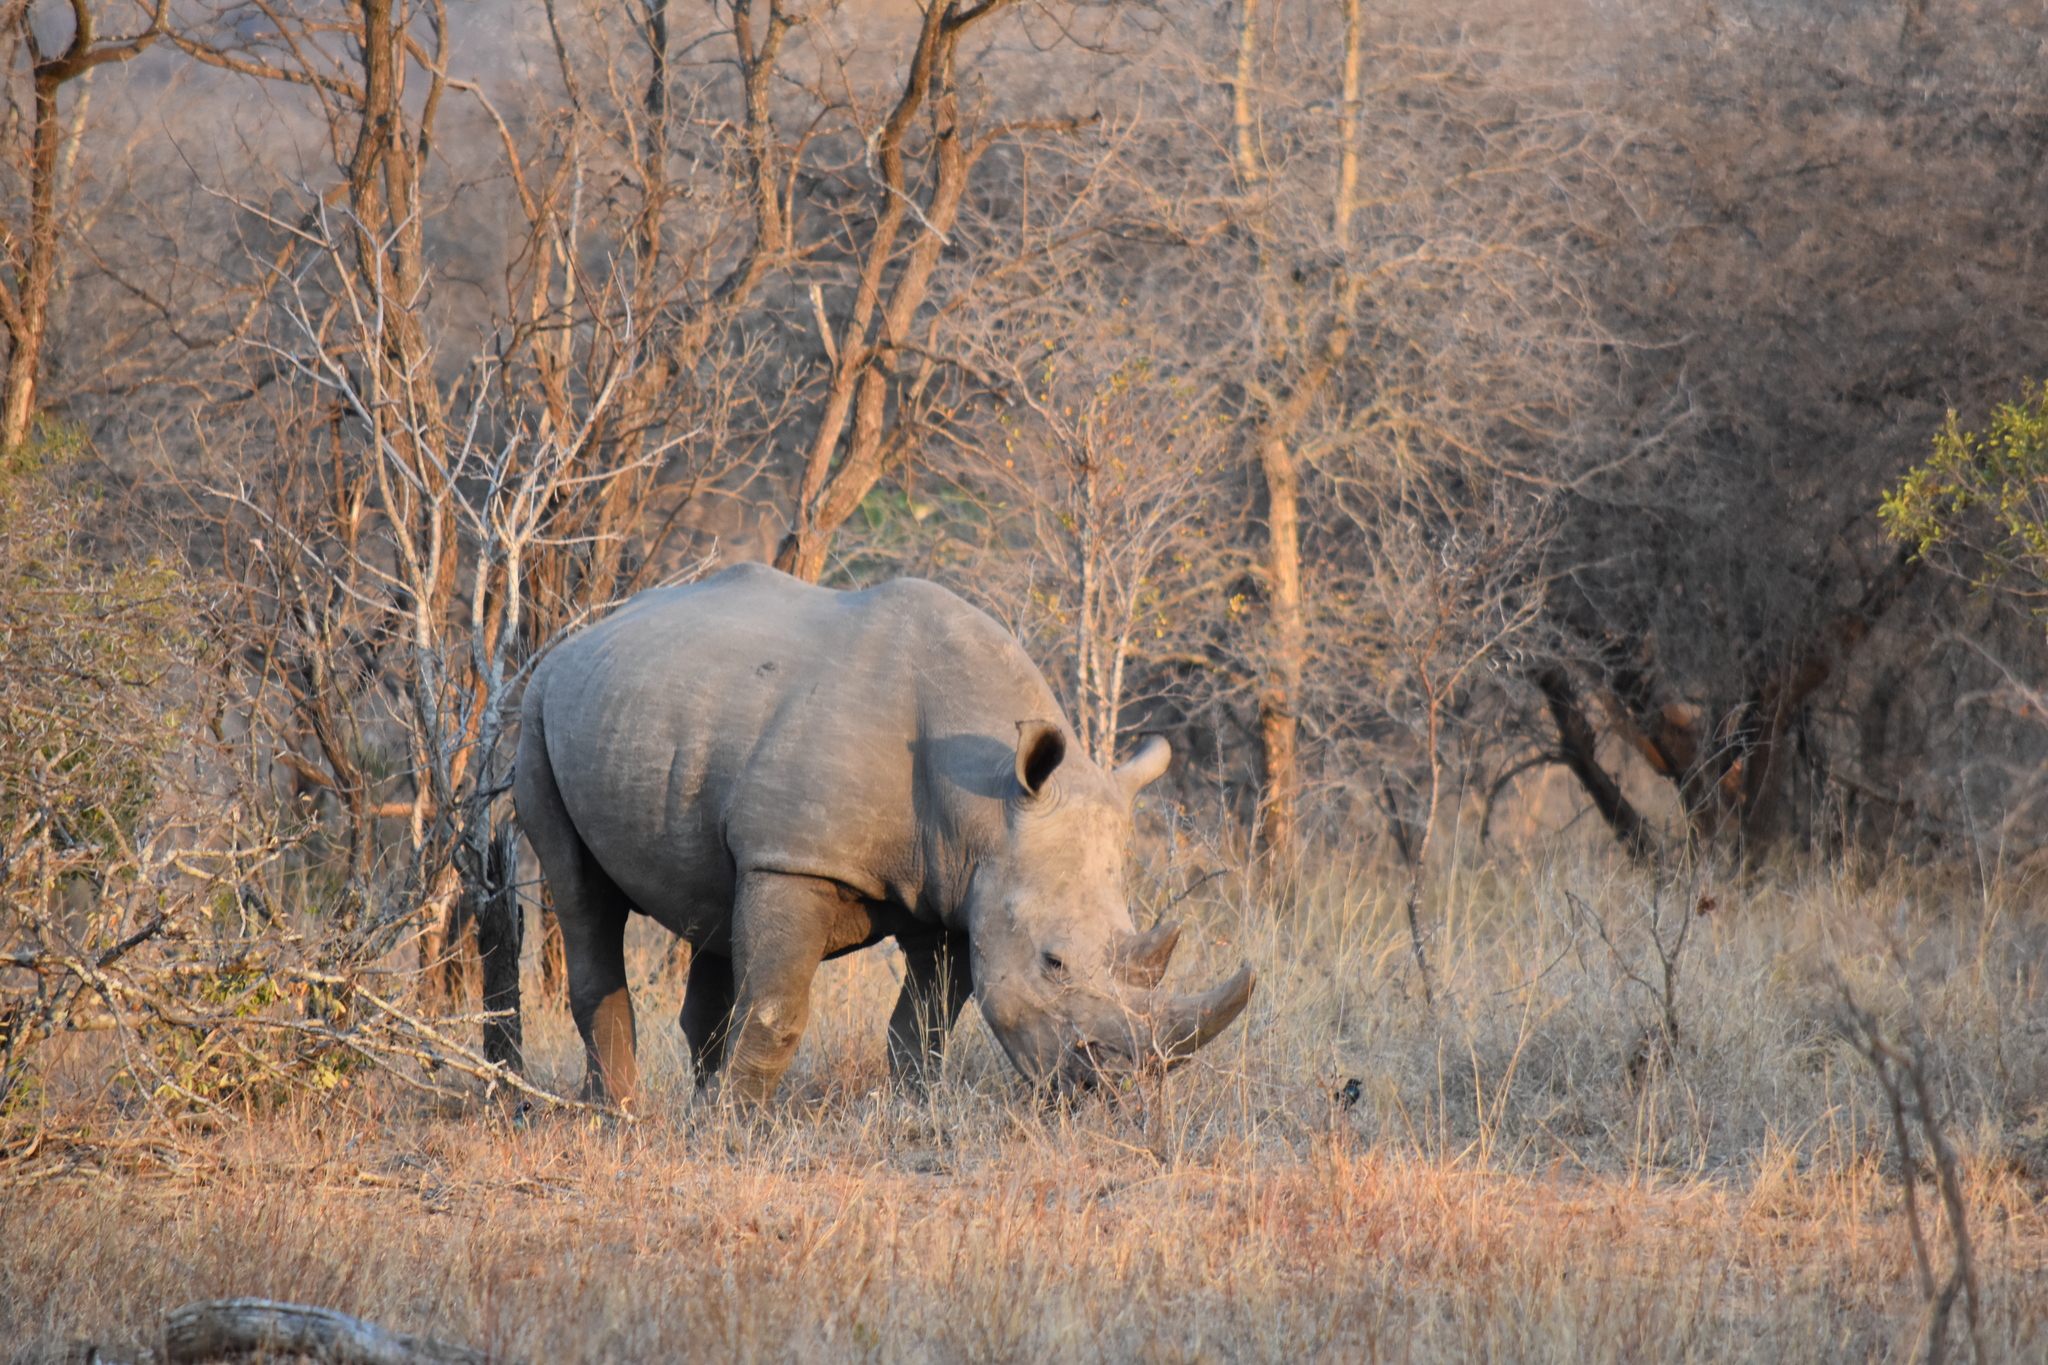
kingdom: Animalia
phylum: Chordata
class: Mammalia
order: Perissodactyla
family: Rhinocerotidae
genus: Ceratotherium
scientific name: Ceratotherium simum
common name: White rhinoceros
